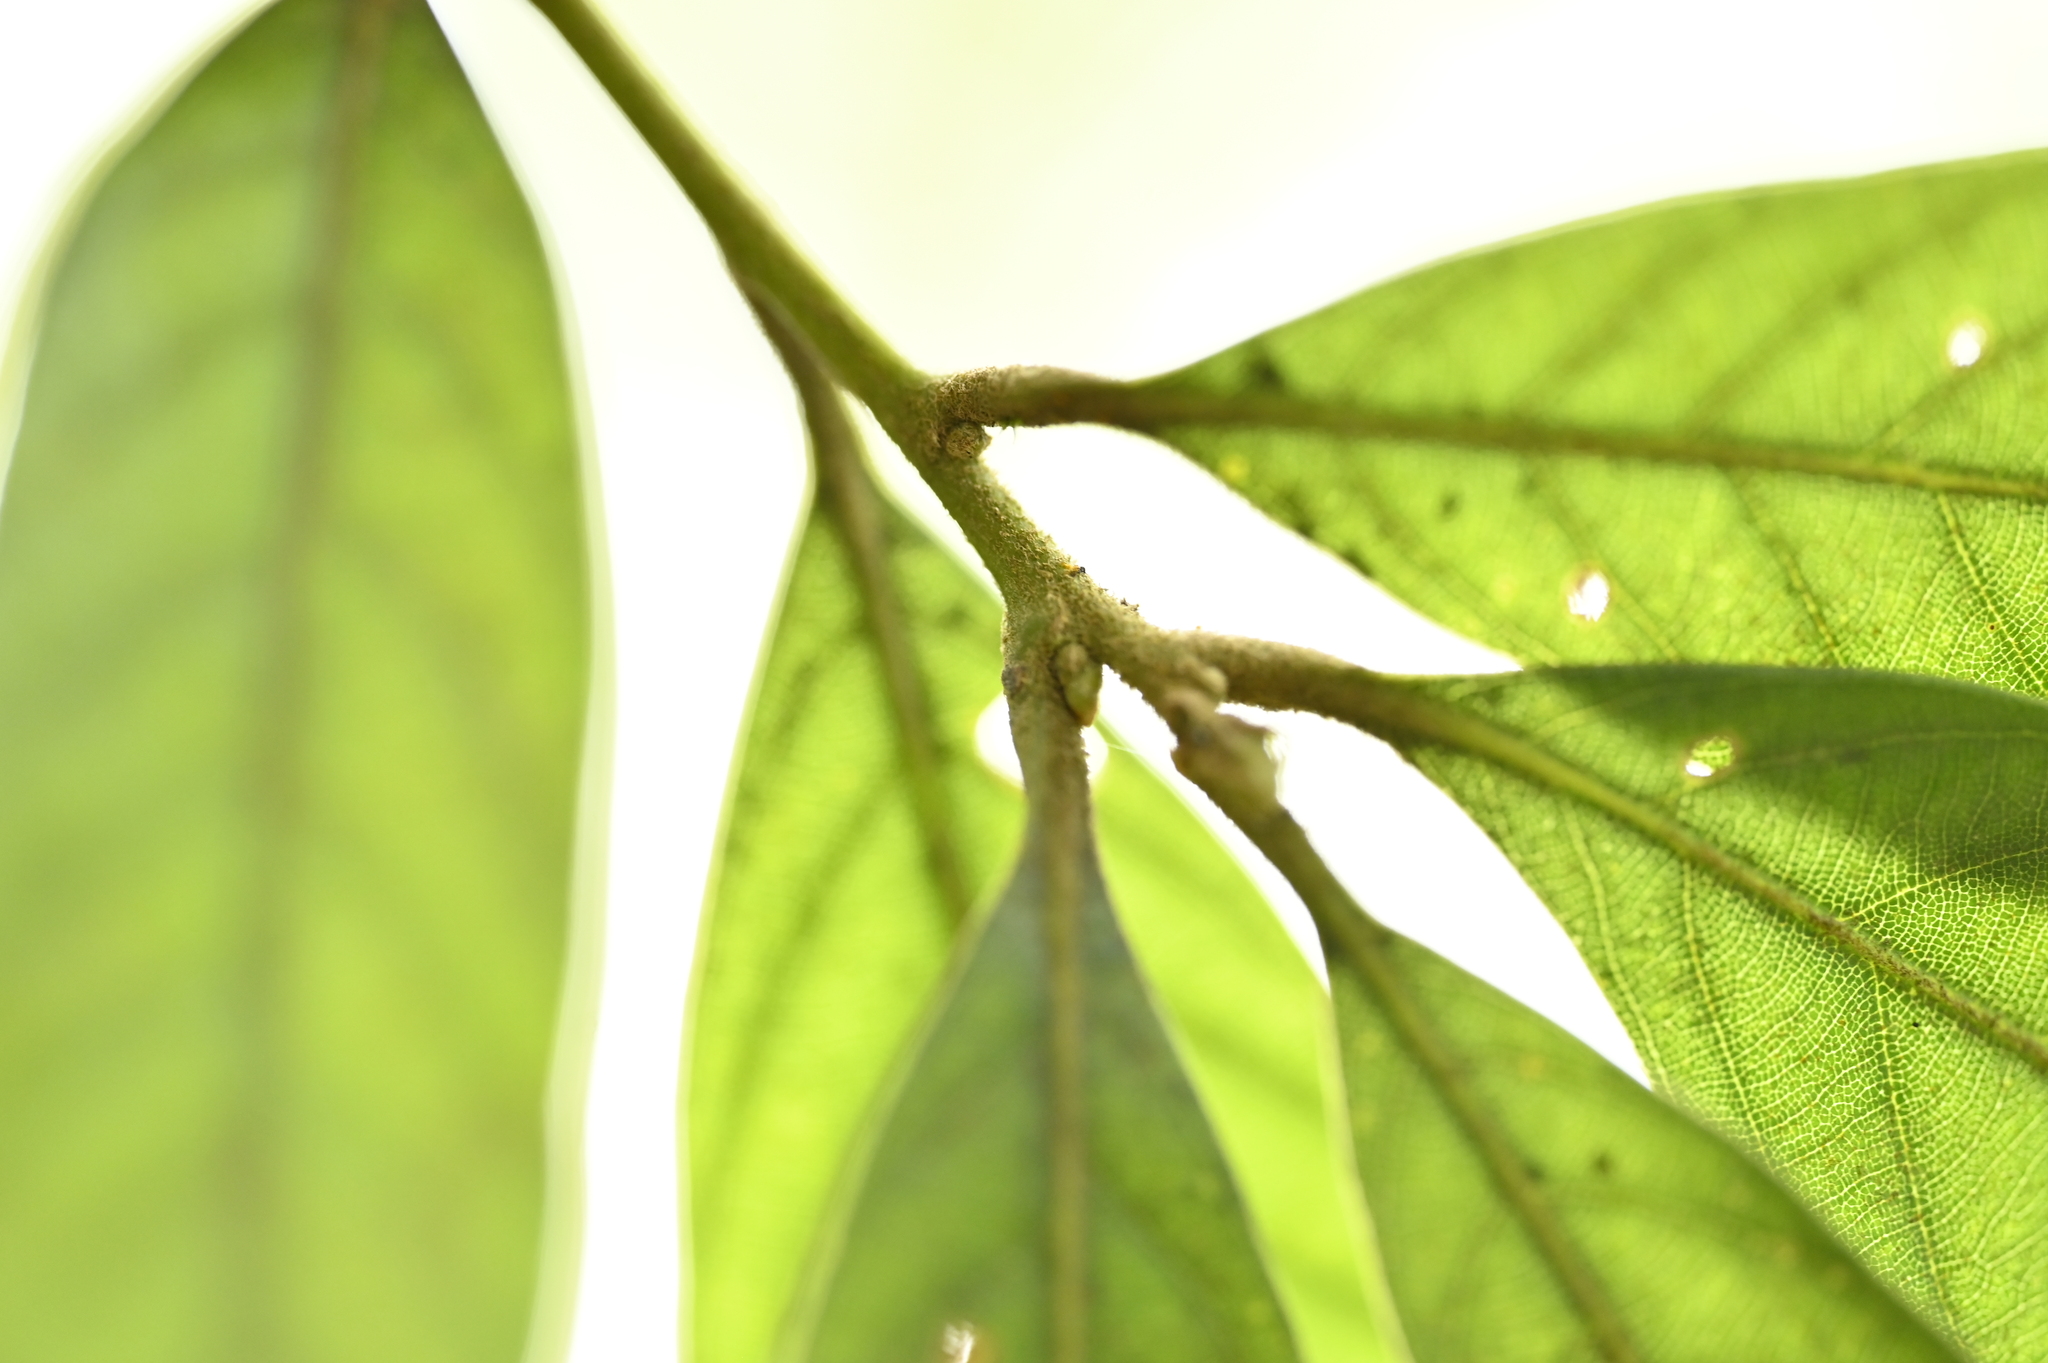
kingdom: Plantae
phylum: Tracheophyta
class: Magnoliopsida
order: Fagales
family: Fagaceae
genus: Lithocarpus
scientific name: Lithocarpus amygdalifolius
